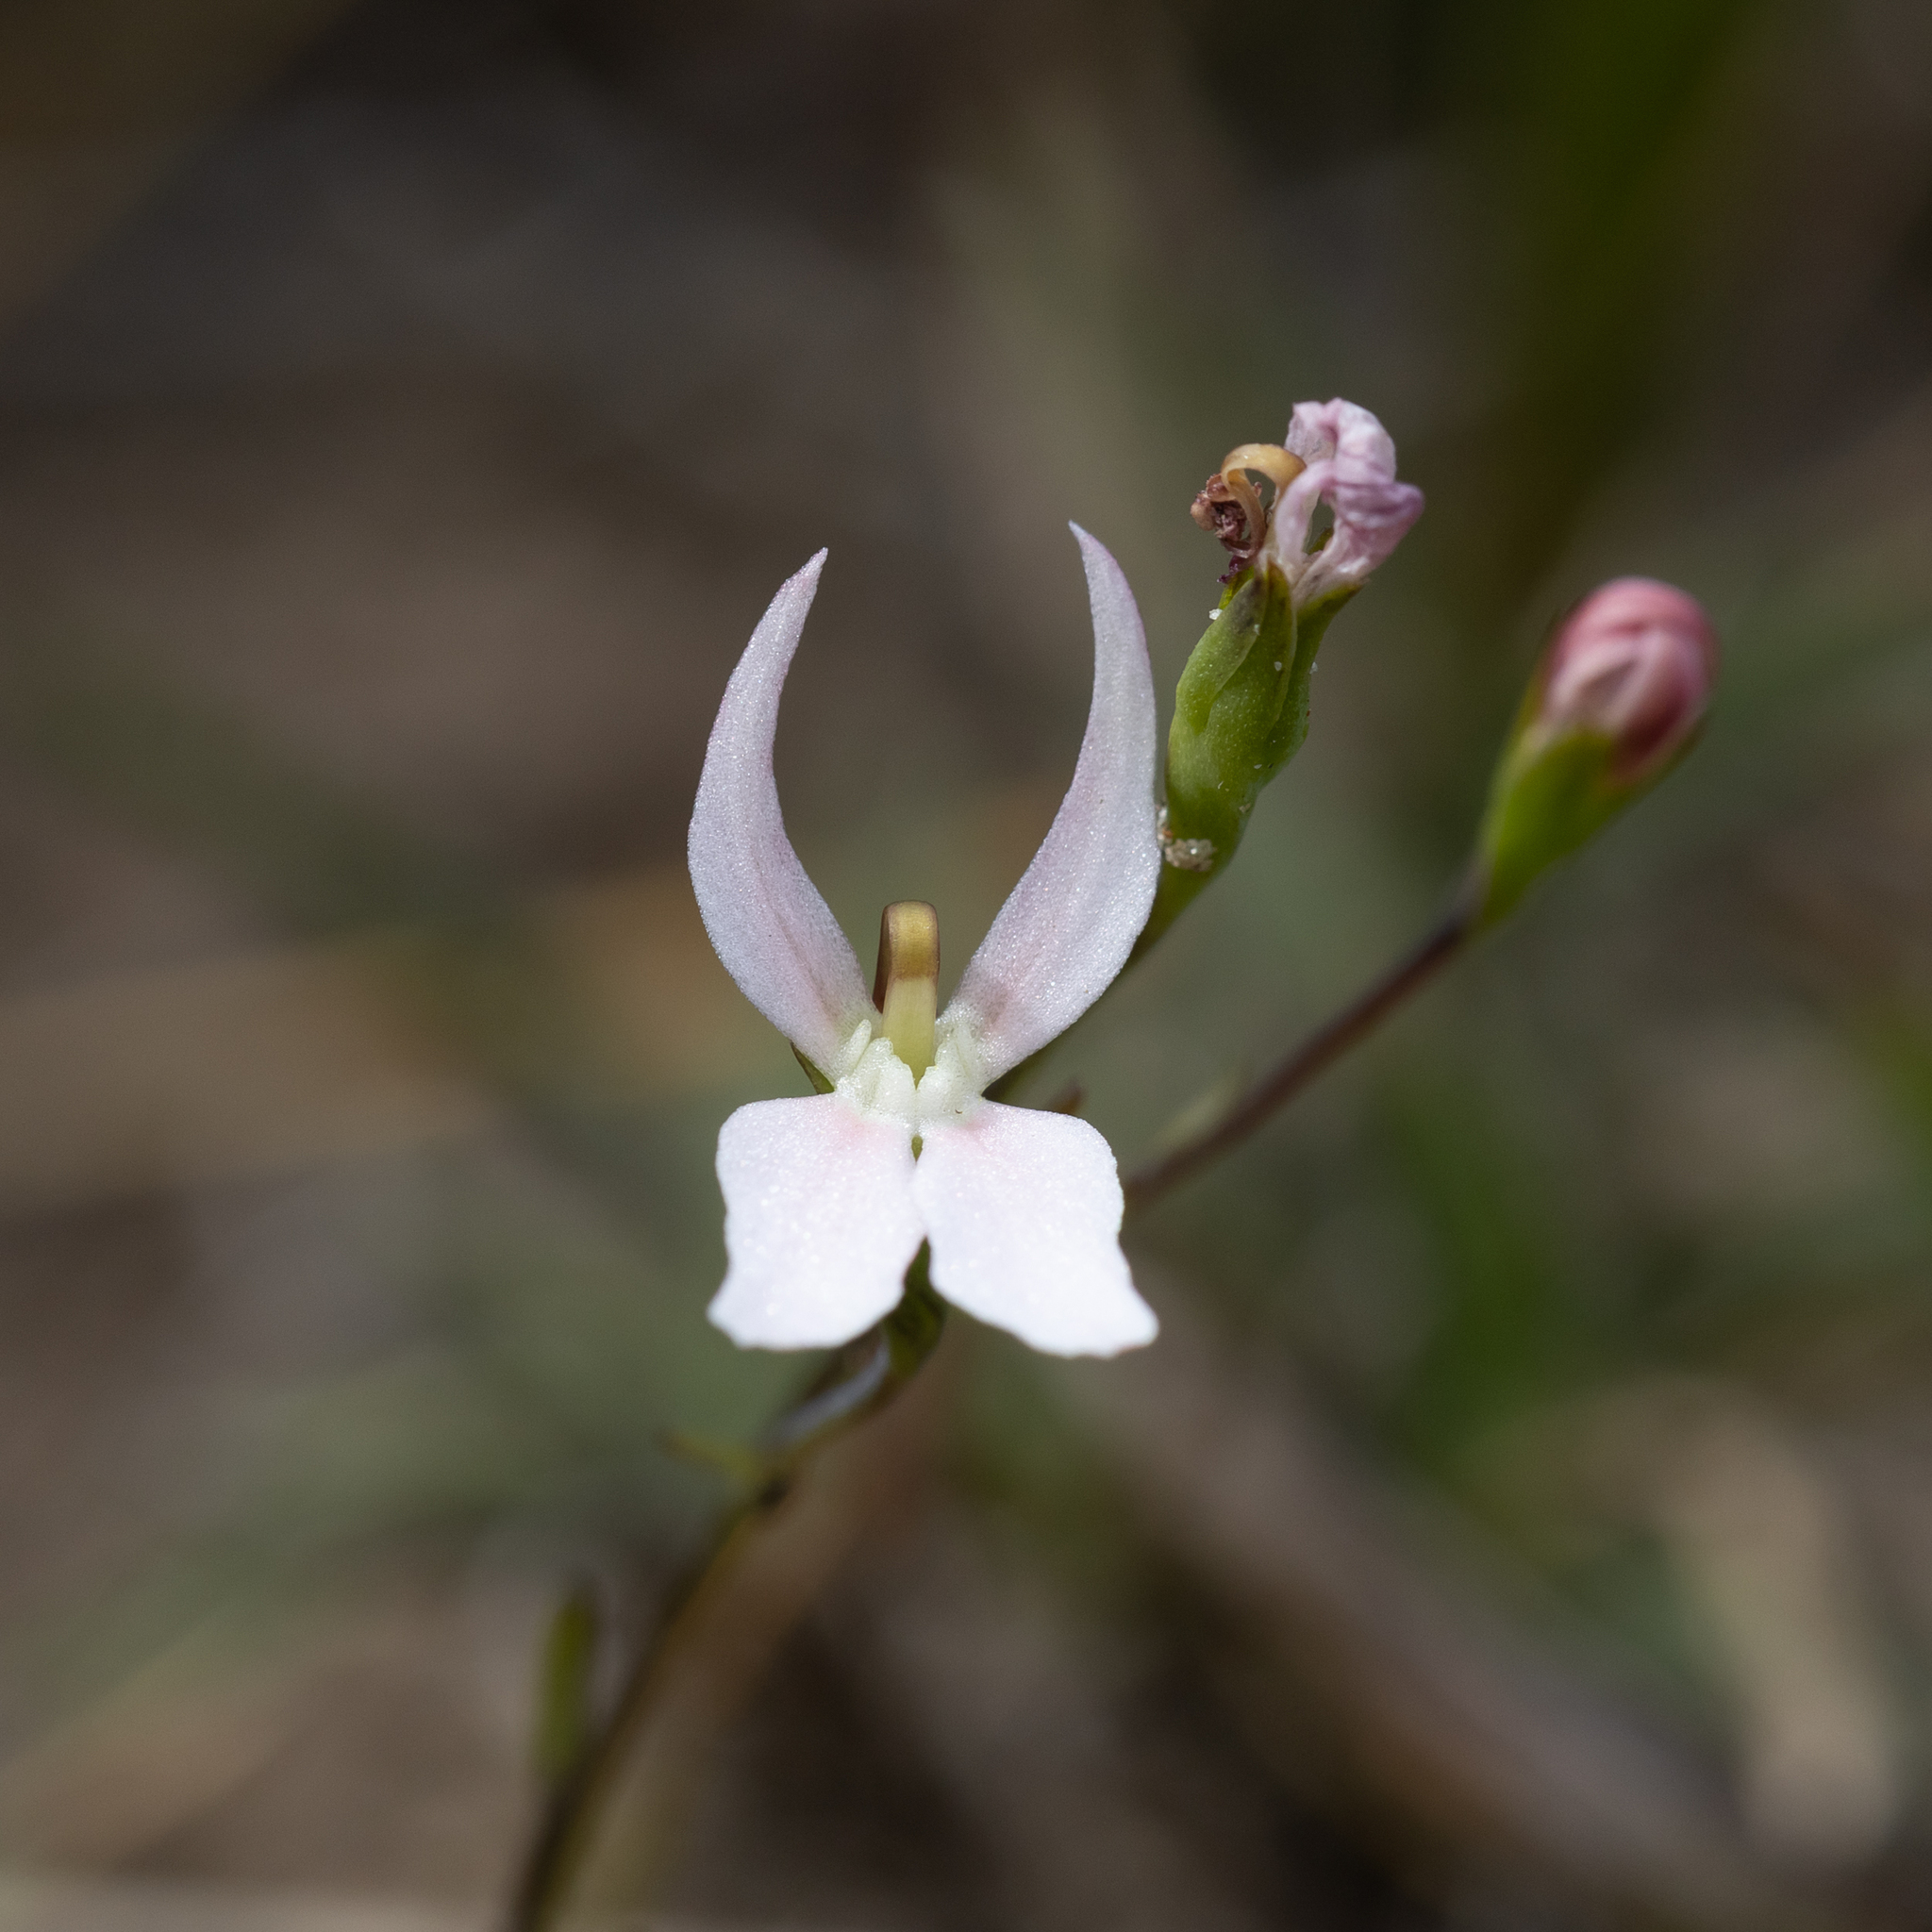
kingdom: Plantae
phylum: Tracheophyta
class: Magnoliopsida
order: Asterales
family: Stylidiaceae
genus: Stylidium
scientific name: Stylidium petiolare
